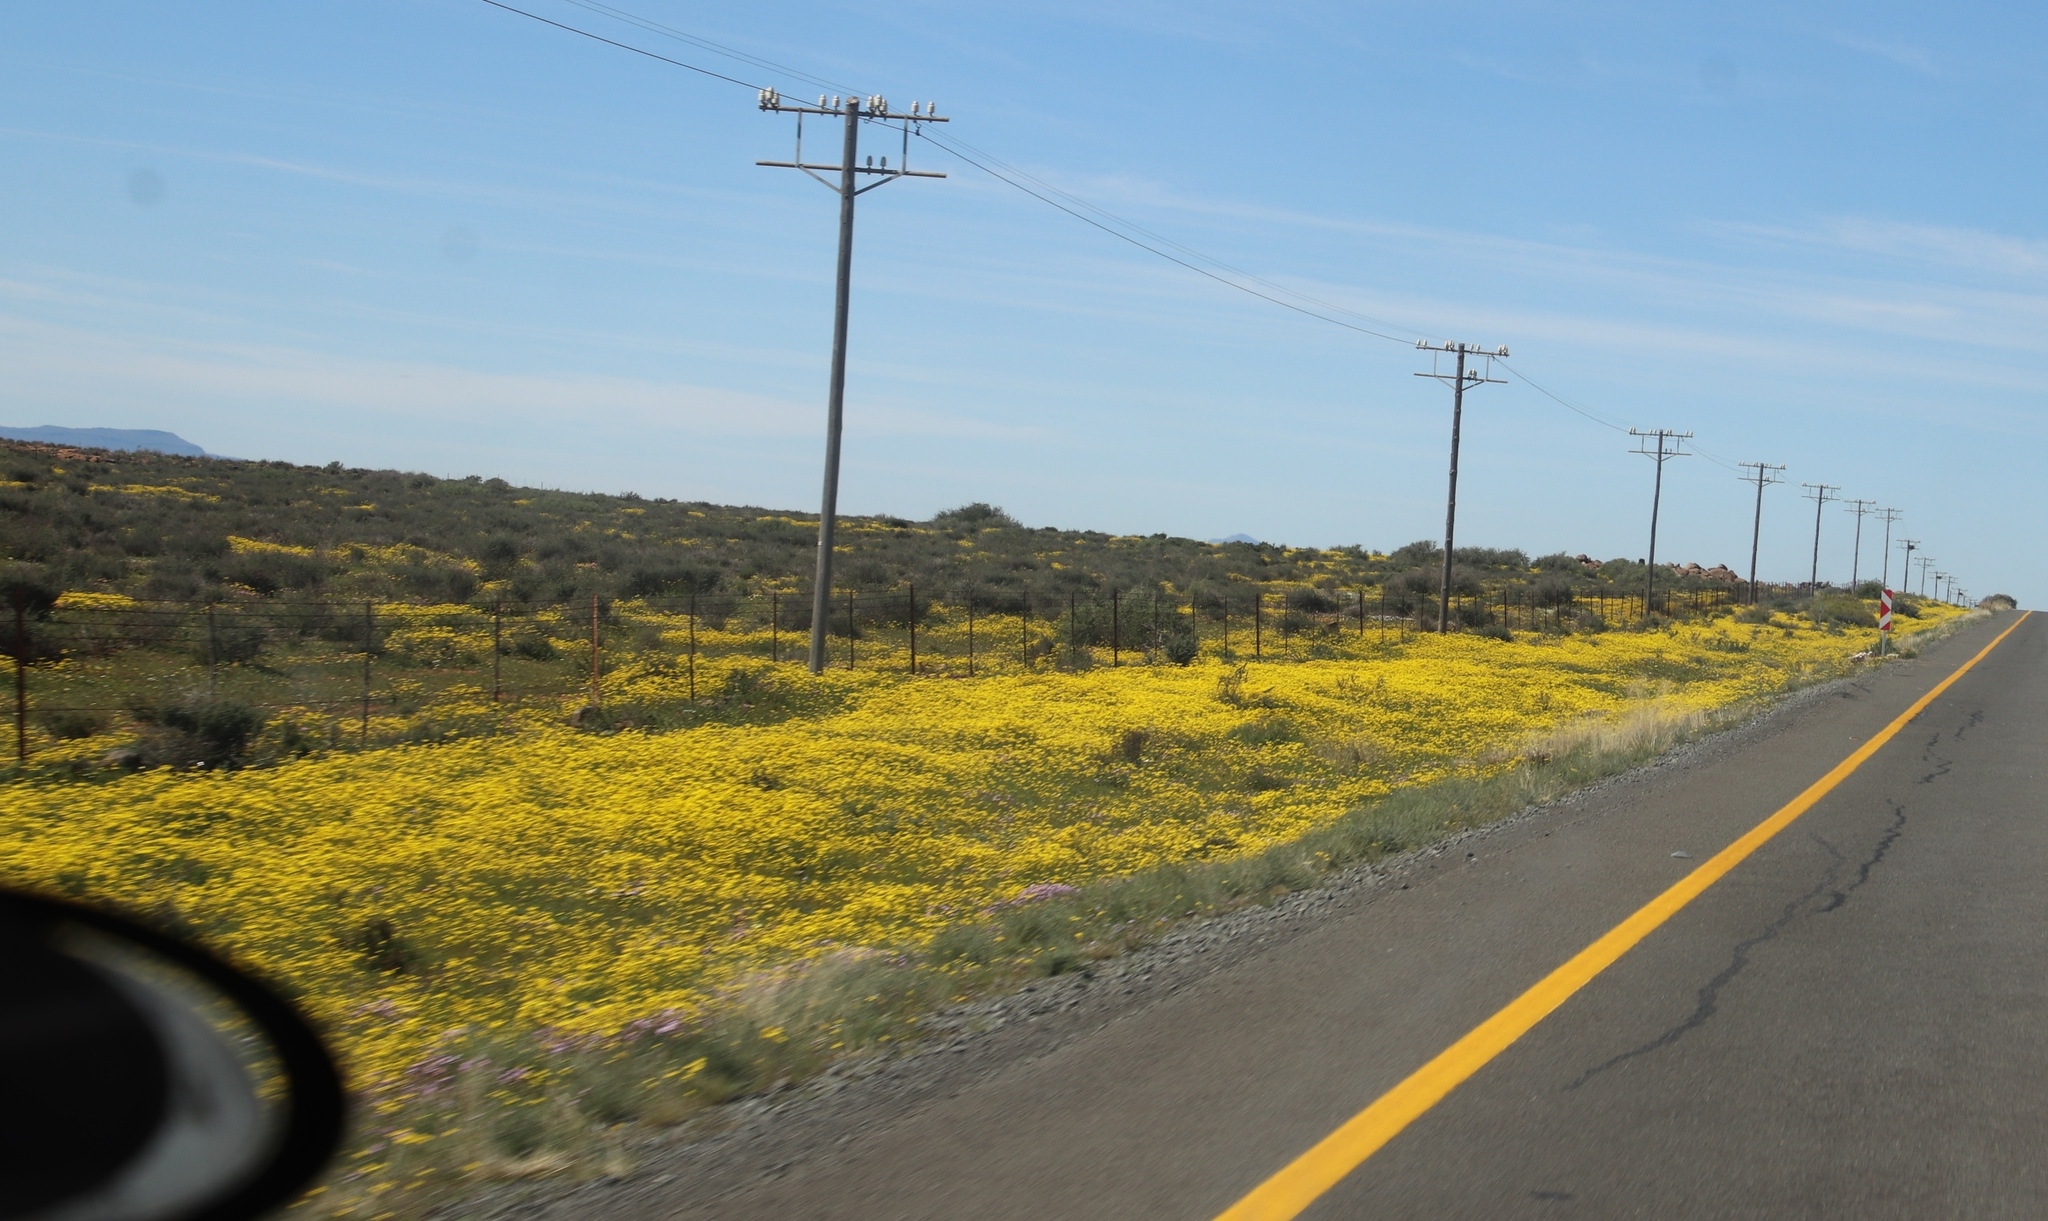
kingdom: Plantae
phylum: Tracheophyta
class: Magnoliopsida
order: Asterales
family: Asteraceae
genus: Senecio
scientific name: Senecio abruptus
